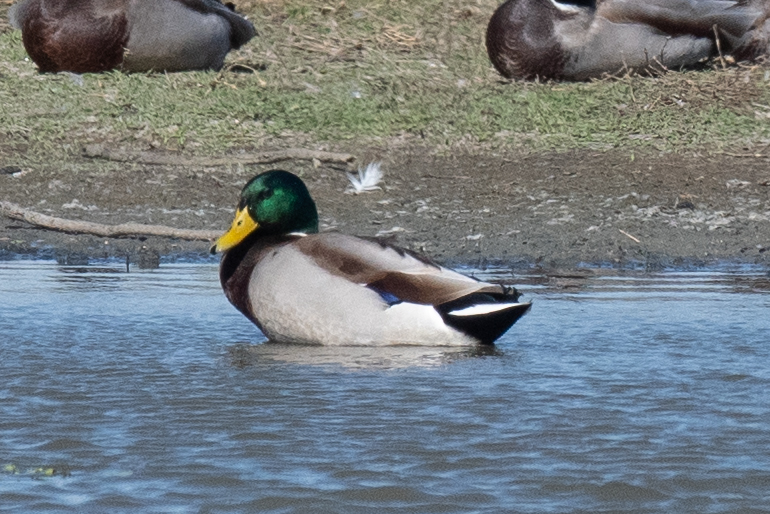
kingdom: Animalia
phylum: Chordata
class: Aves
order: Anseriformes
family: Anatidae
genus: Anas
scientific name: Anas platyrhynchos
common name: Mallard
